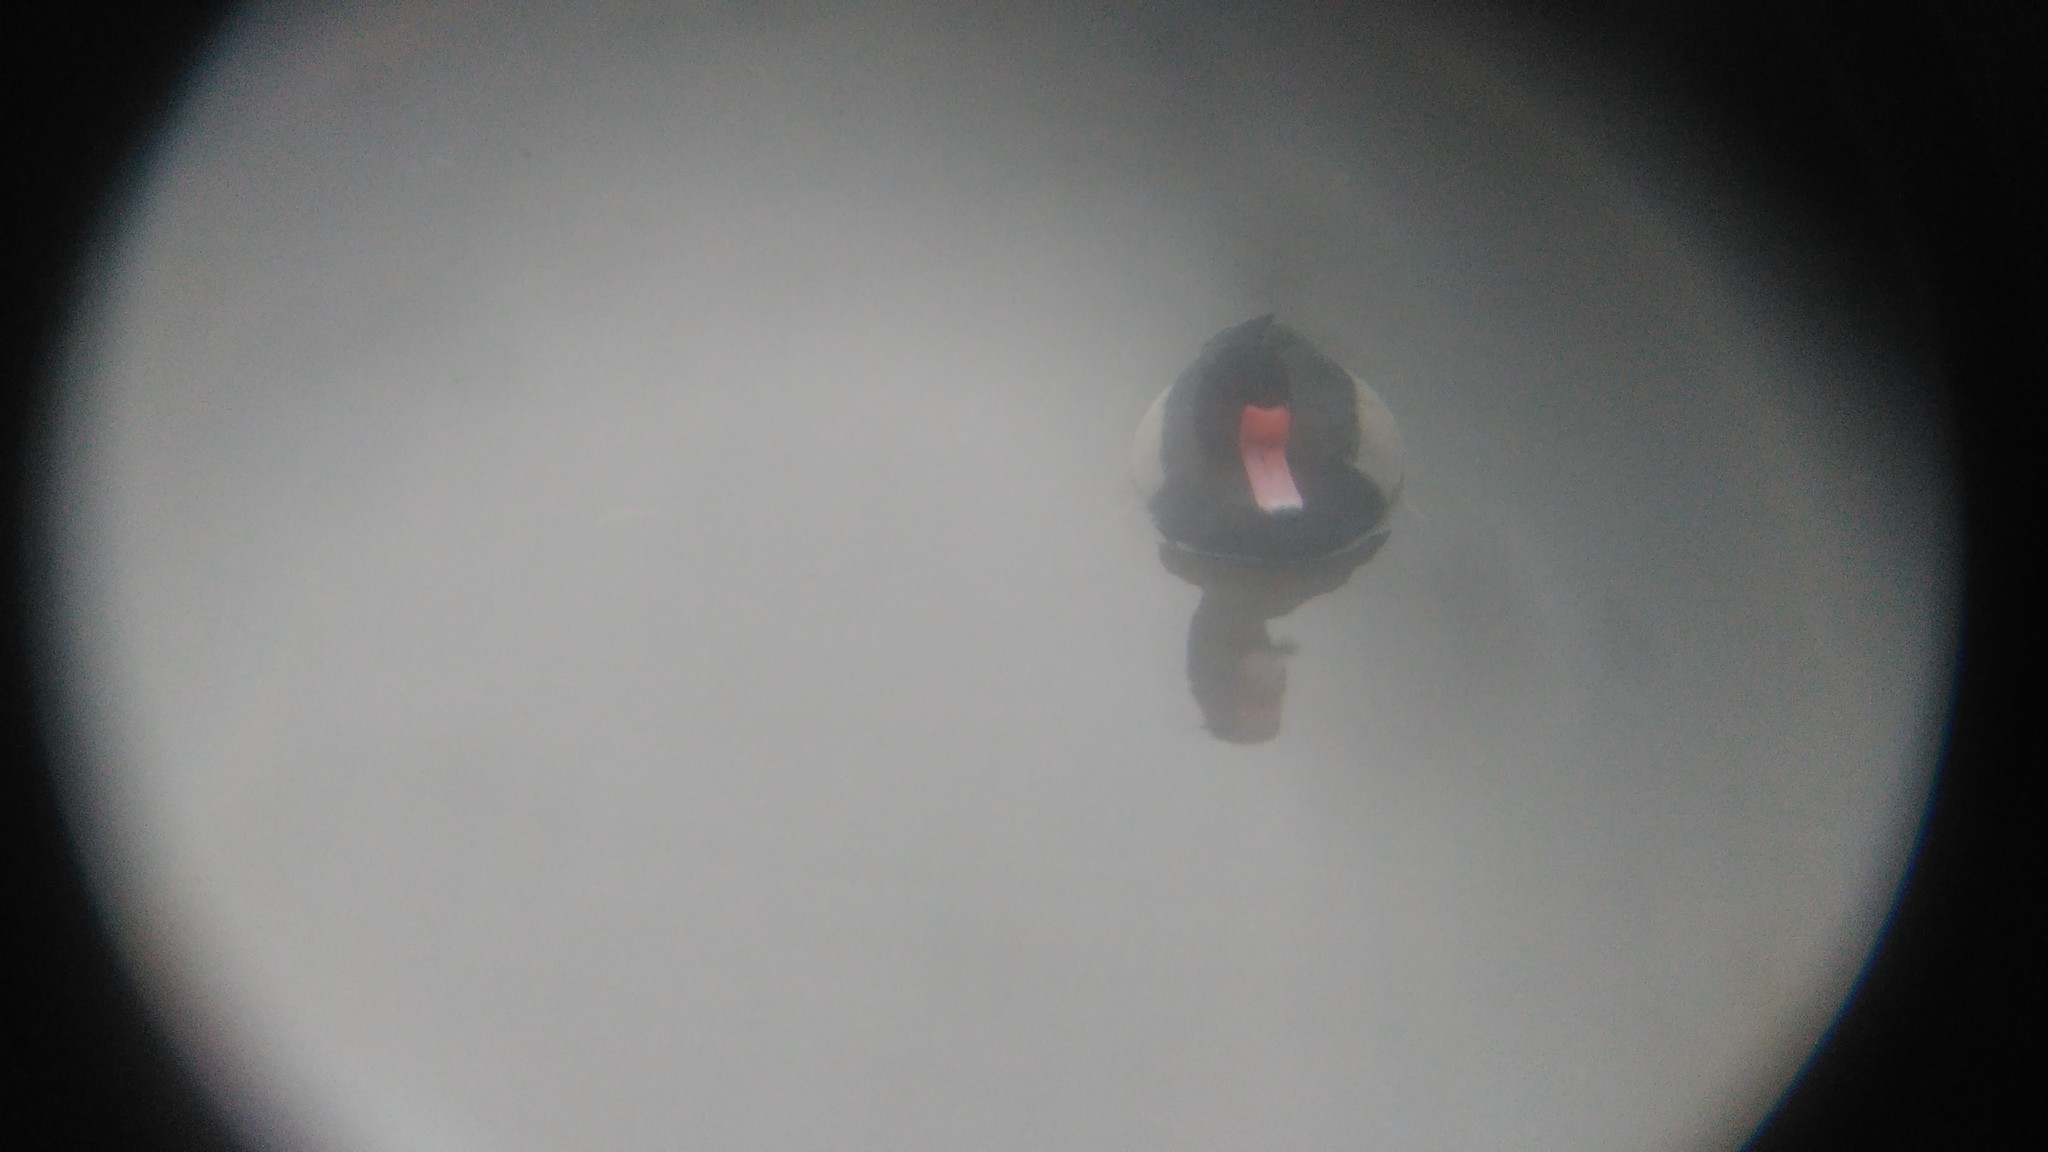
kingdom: Animalia
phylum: Chordata
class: Aves
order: Anseriformes
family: Anatidae
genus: Netta
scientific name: Netta peposaca
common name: Rosy-billed pochard
